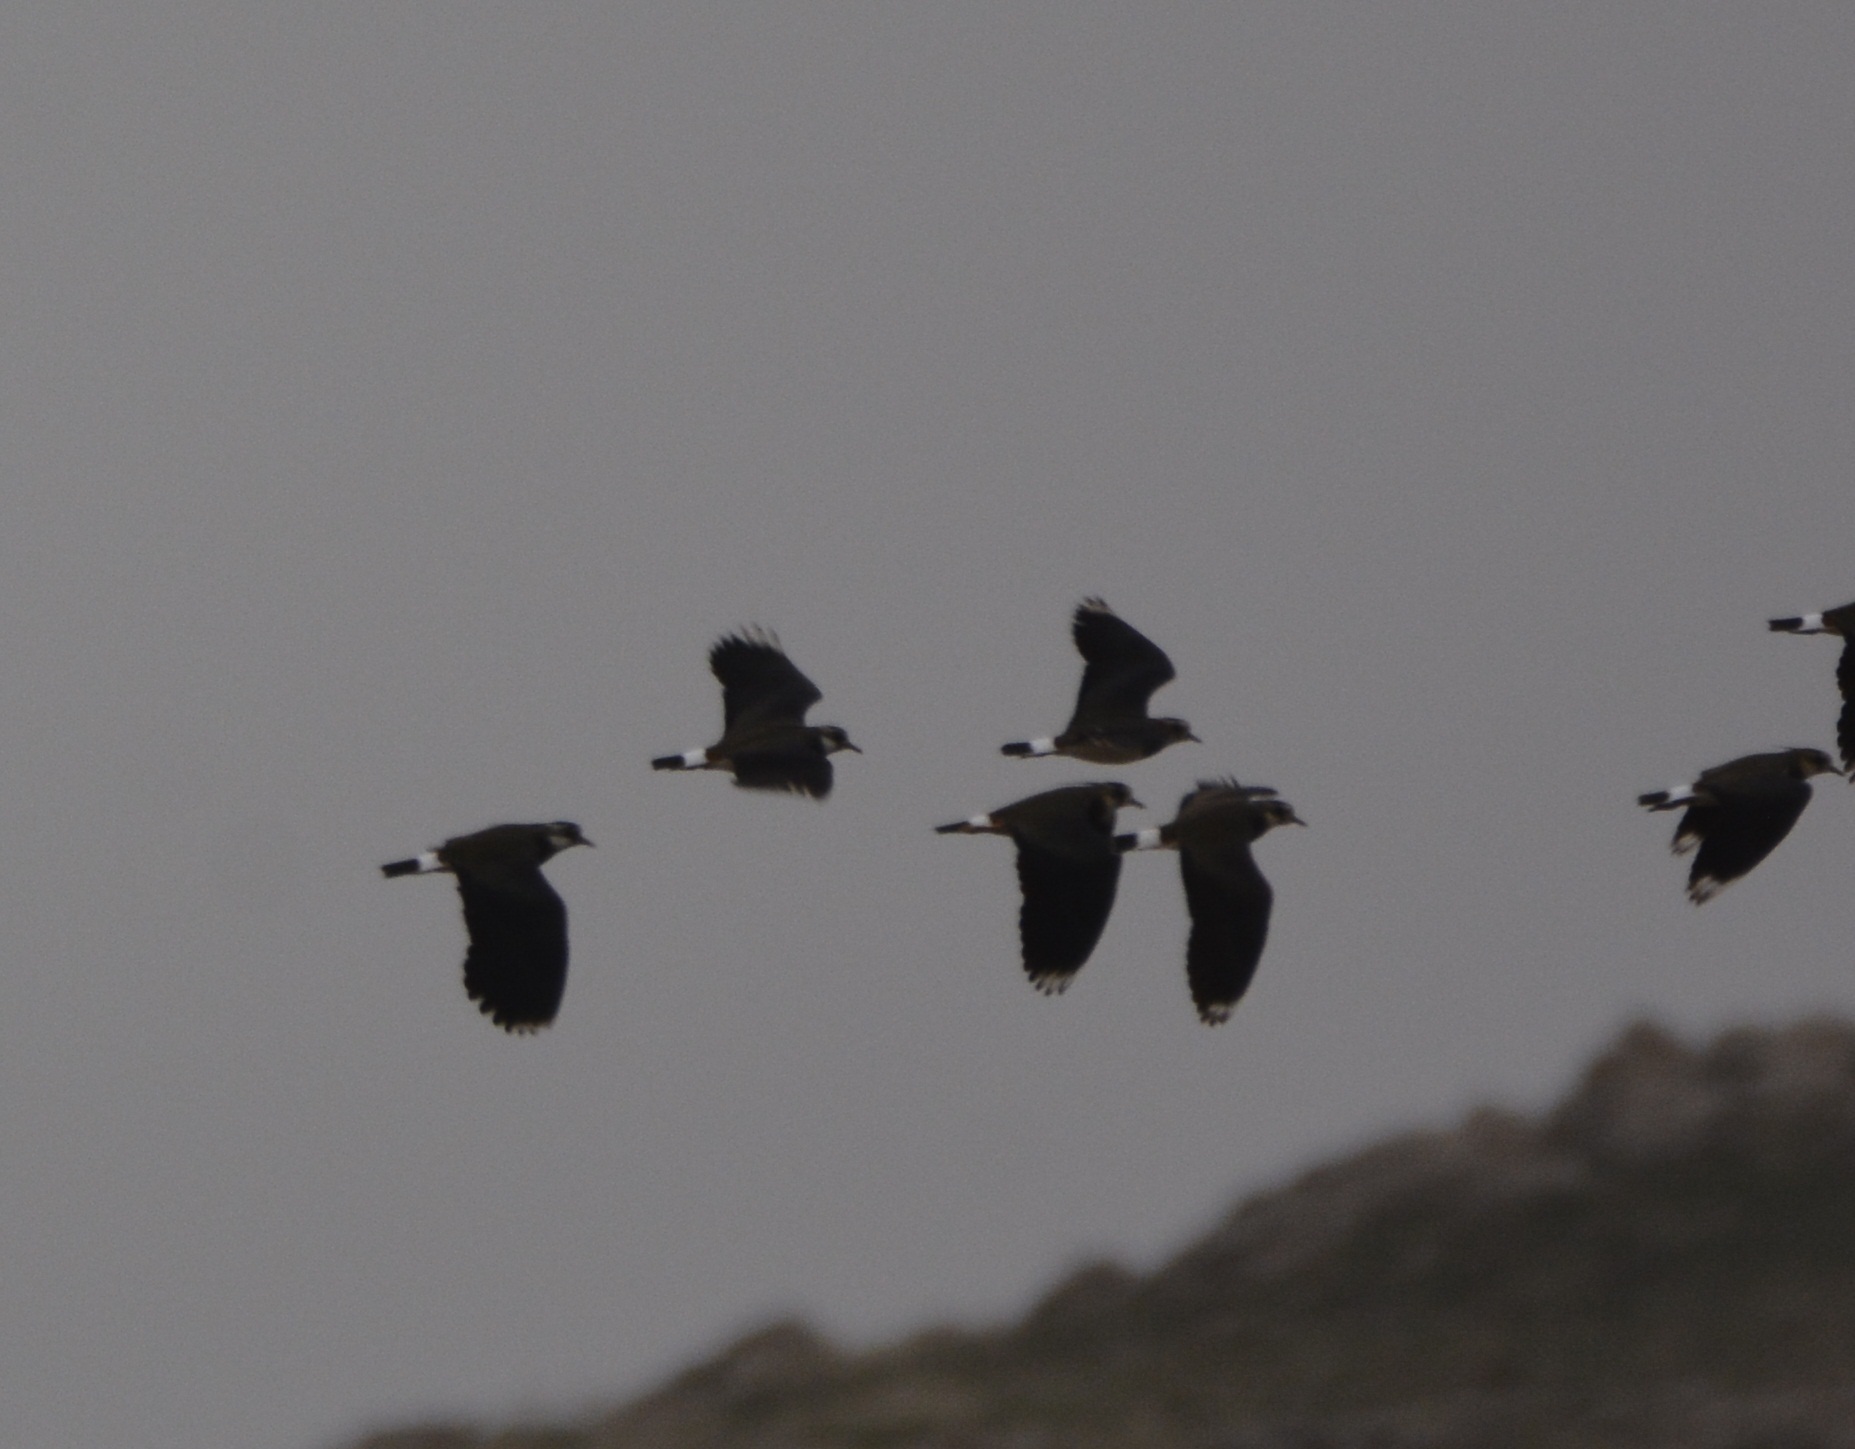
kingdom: Animalia
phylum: Chordata
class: Aves
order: Charadriiformes
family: Charadriidae
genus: Vanellus
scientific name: Vanellus vanellus
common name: Northern lapwing
